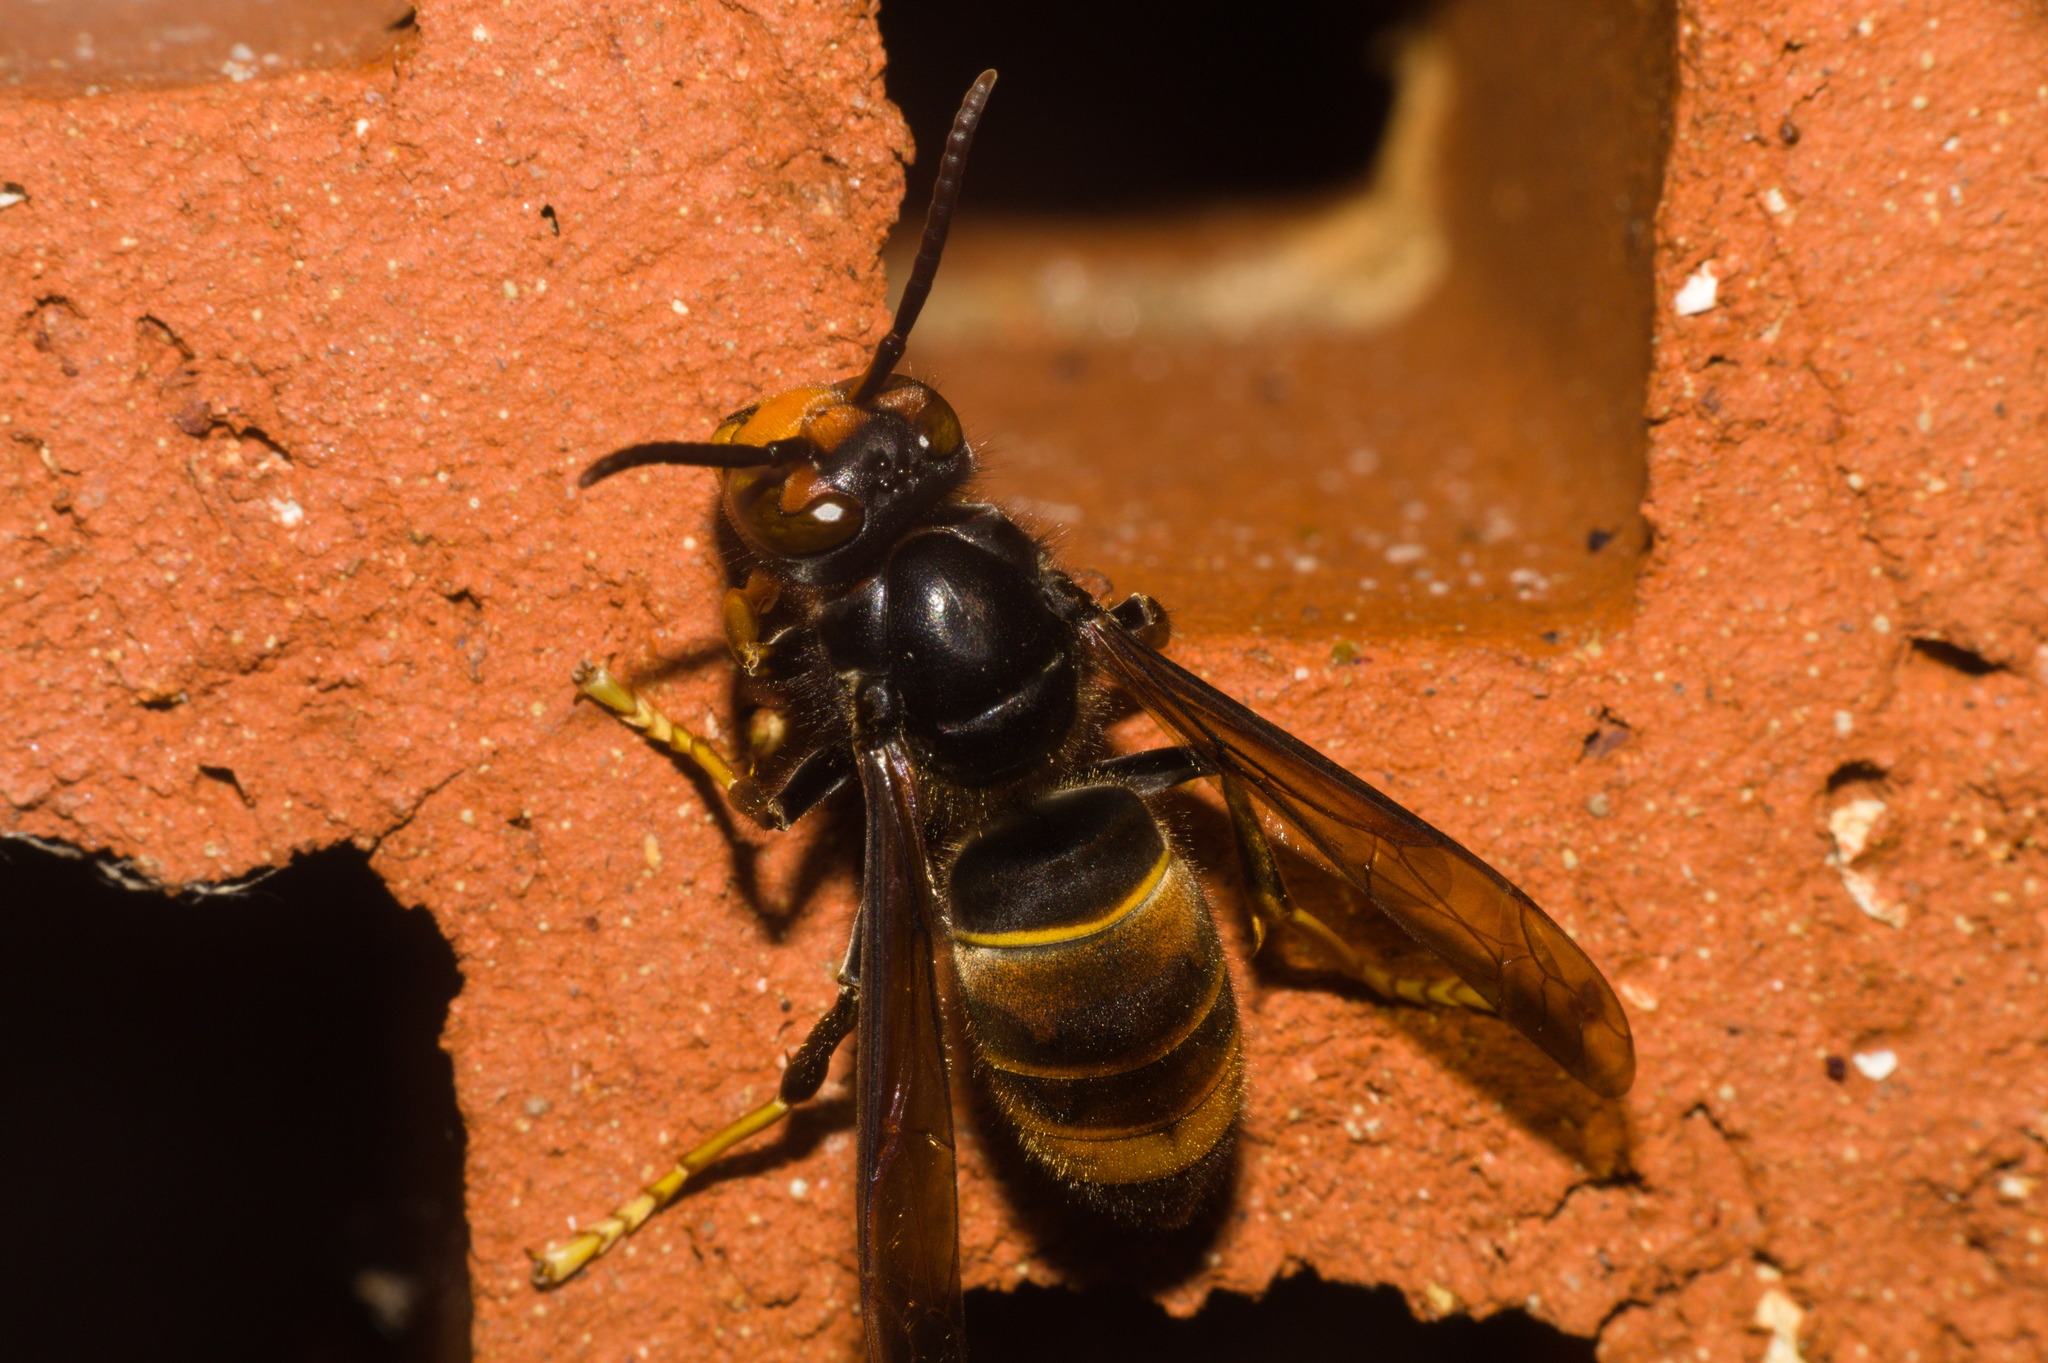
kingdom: Animalia
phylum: Arthropoda
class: Insecta
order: Hymenoptera
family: Vespidae
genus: Vespa
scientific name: Vespa velutina
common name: Asian hornet
